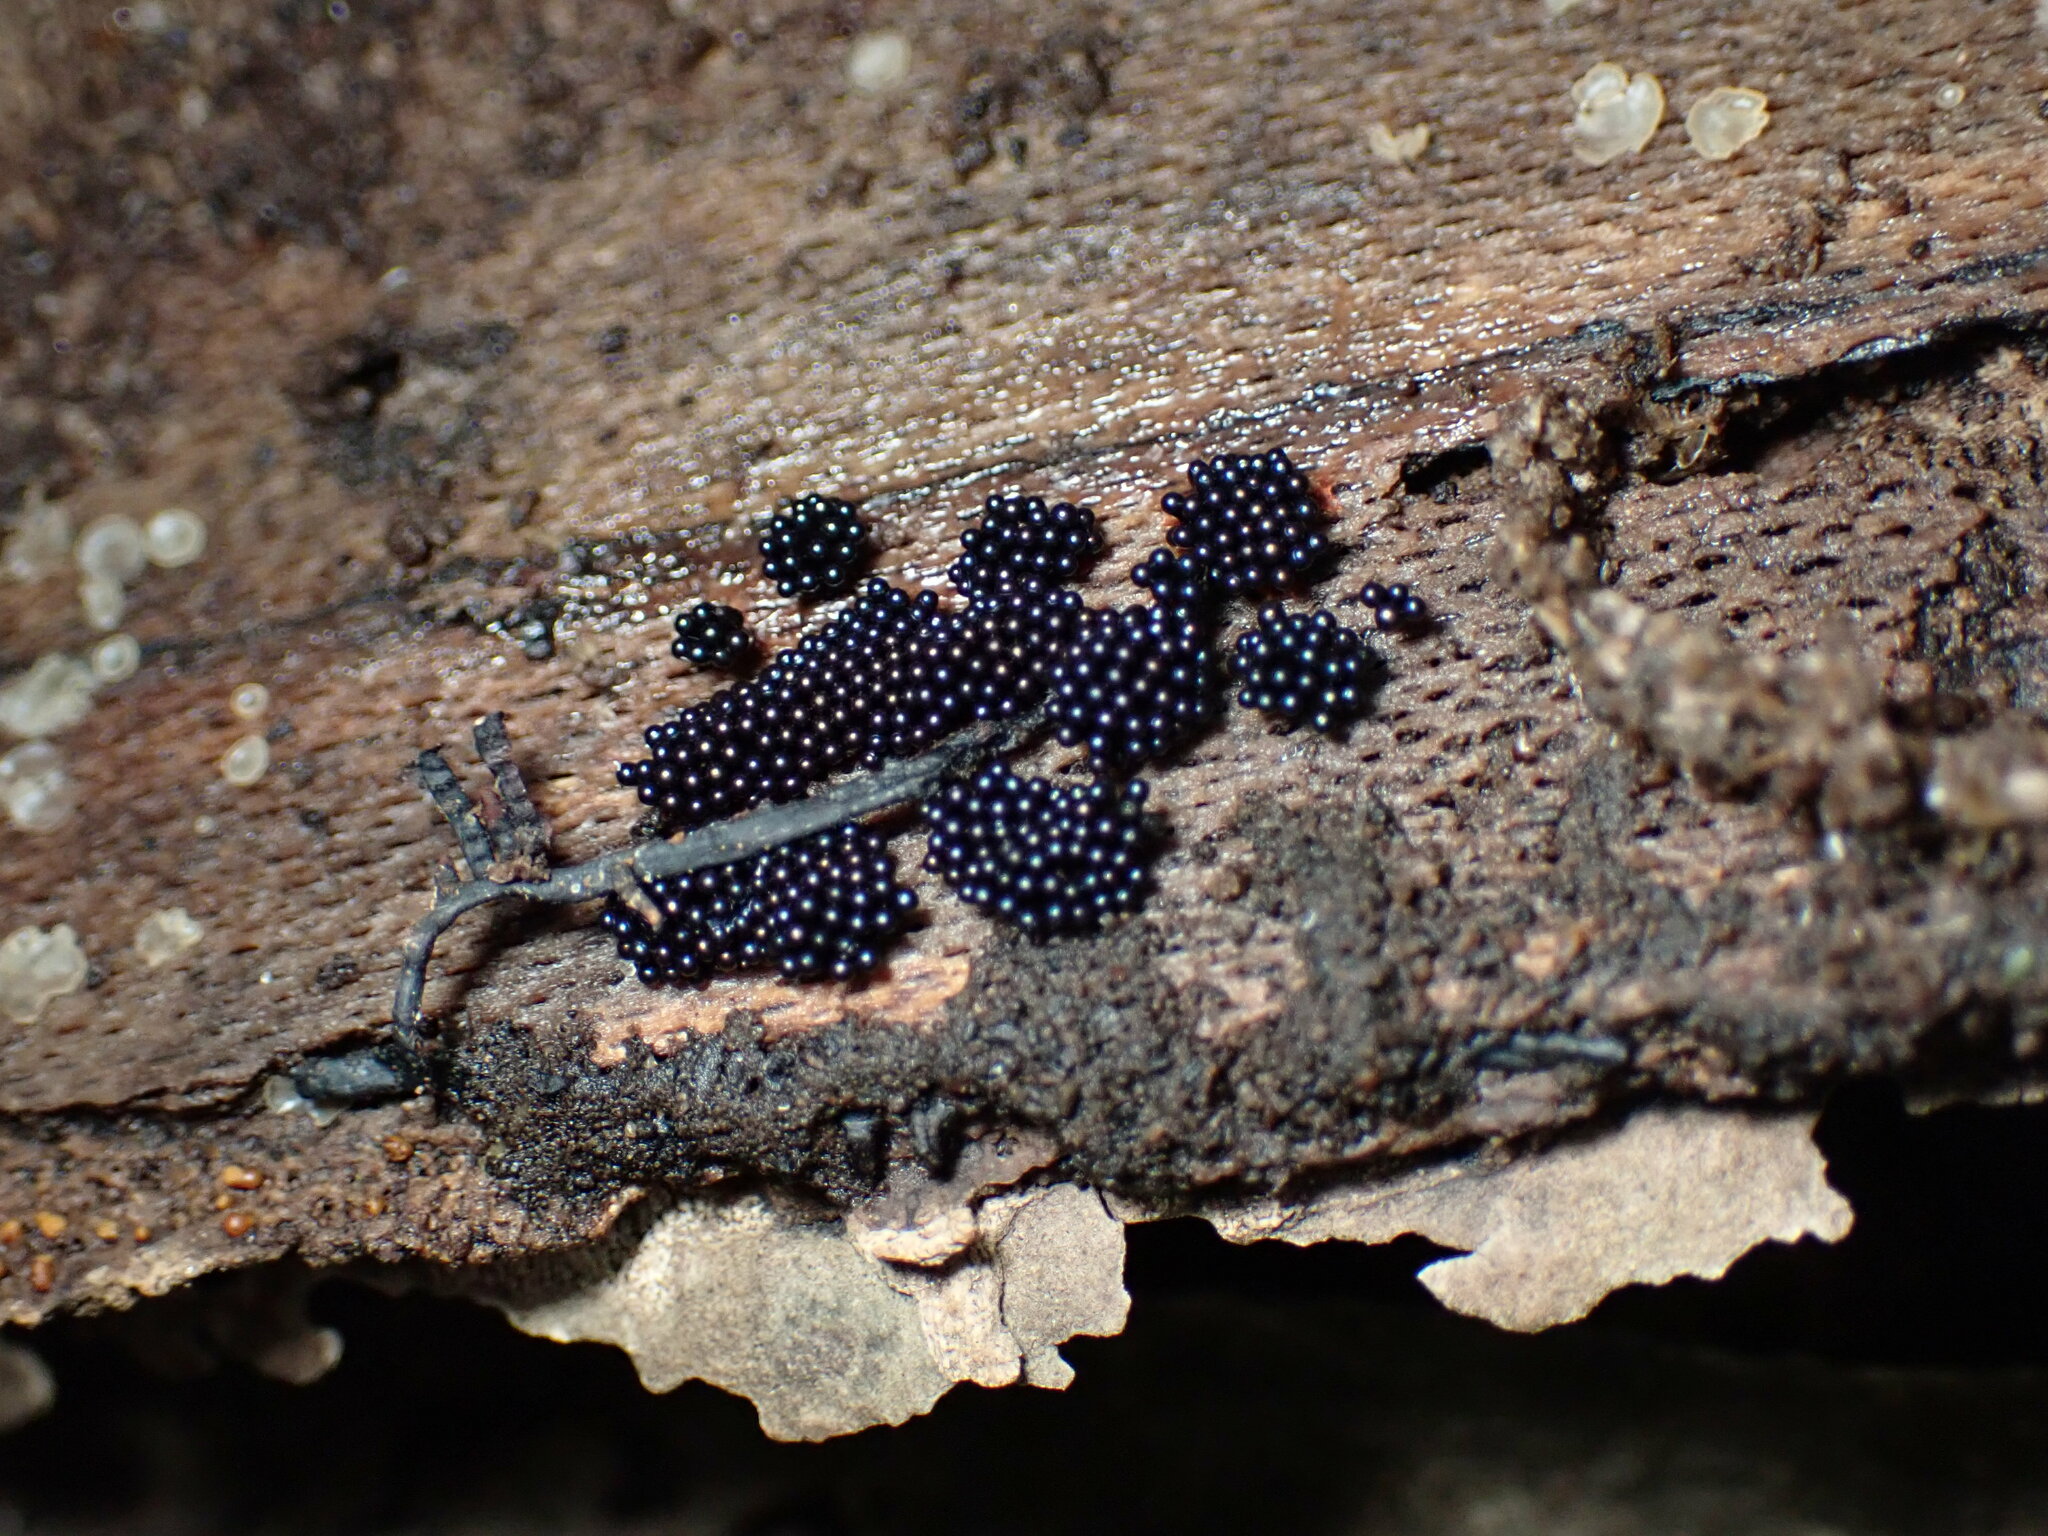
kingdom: Protozoa
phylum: Mycetozoa
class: Myxomycetes
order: Trichiales
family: Trichiaceae
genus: Metatrichia
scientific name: Metatrichia vesparia
